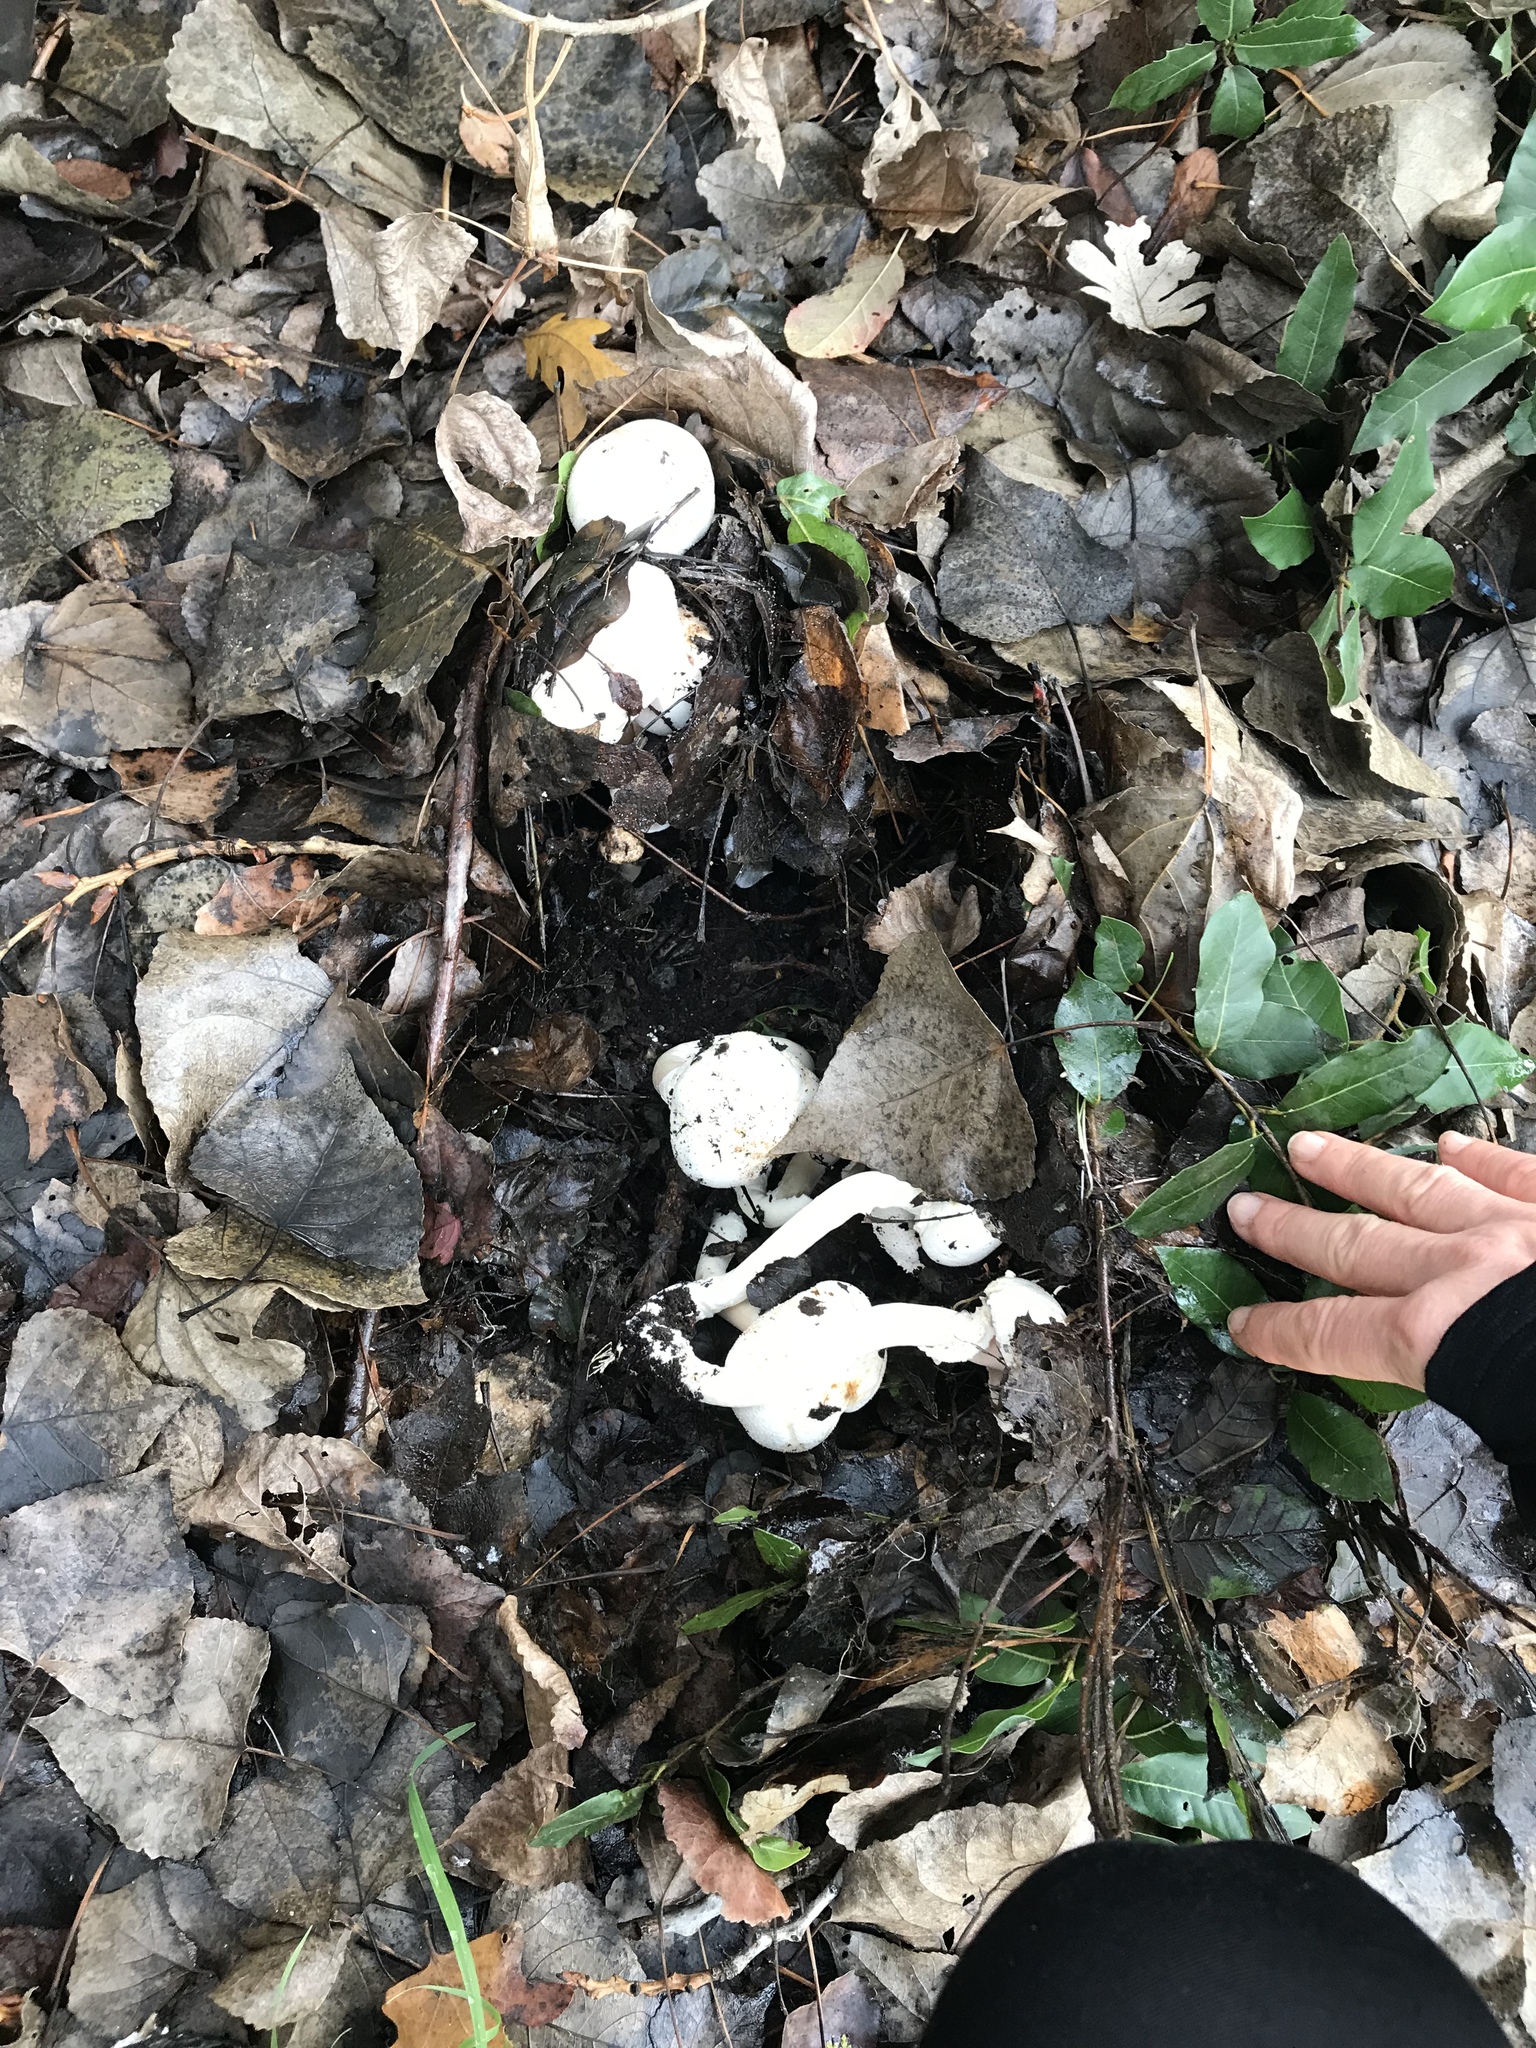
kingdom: Fungi
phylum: Basidiomycota
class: Agaricomycetes
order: Agaricales
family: Agaricaceae
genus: Agaricus
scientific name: Agaricus xanthodermus
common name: Yellow stainer
